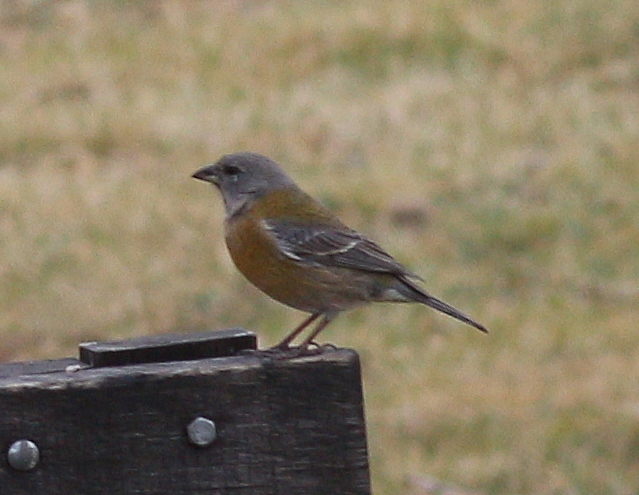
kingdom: Animalia
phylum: Chordata
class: Aves
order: Passeriformes
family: Thraupidae
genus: Phrygilus
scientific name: Phrygilus punensis
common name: Peruvian sierra finch
